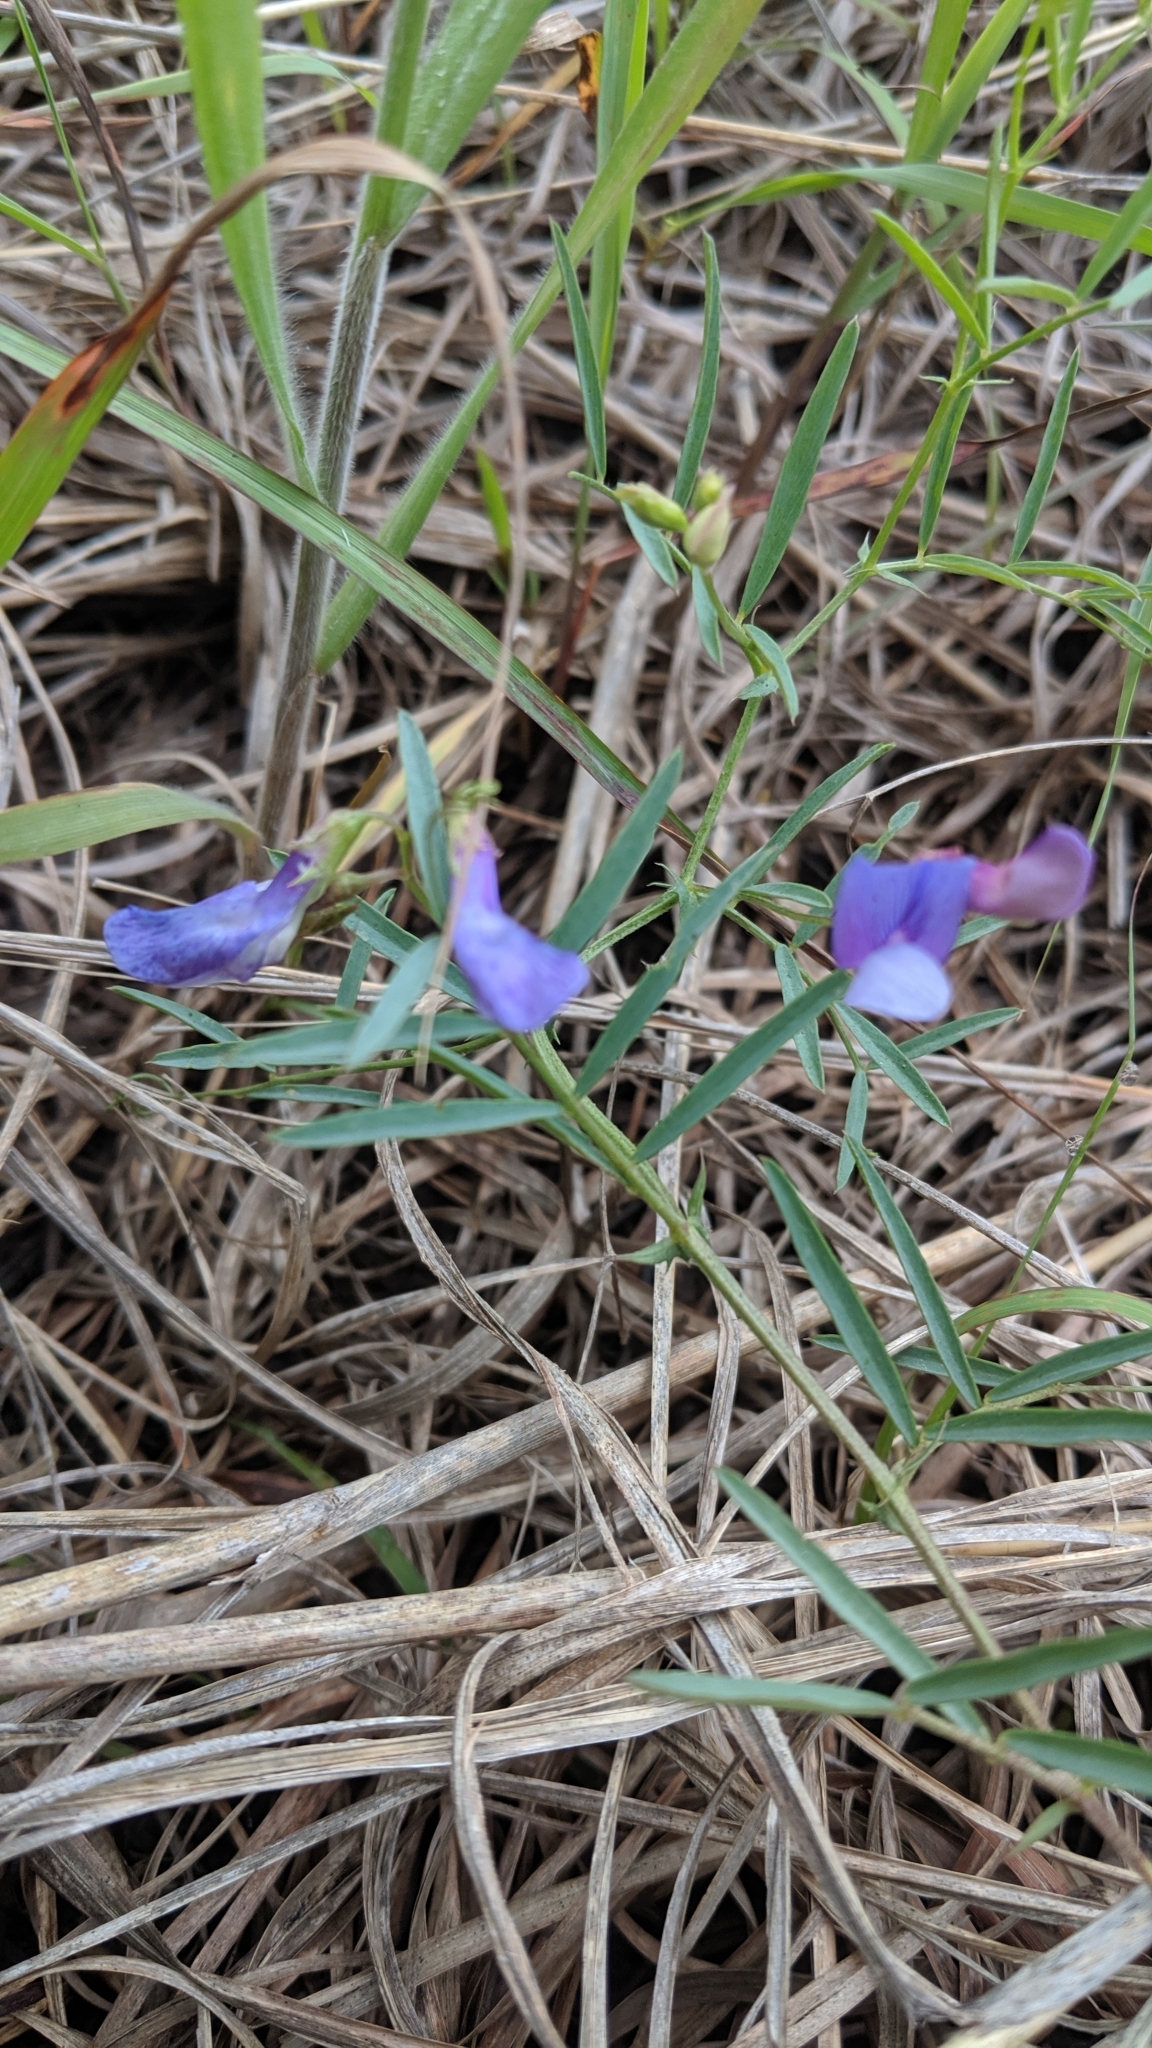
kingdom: Plantae
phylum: Tracheophyta
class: Magnoliopsida
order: Fabales
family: Fabaceae
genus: Vicia
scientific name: Vicia americana
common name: American vetch
